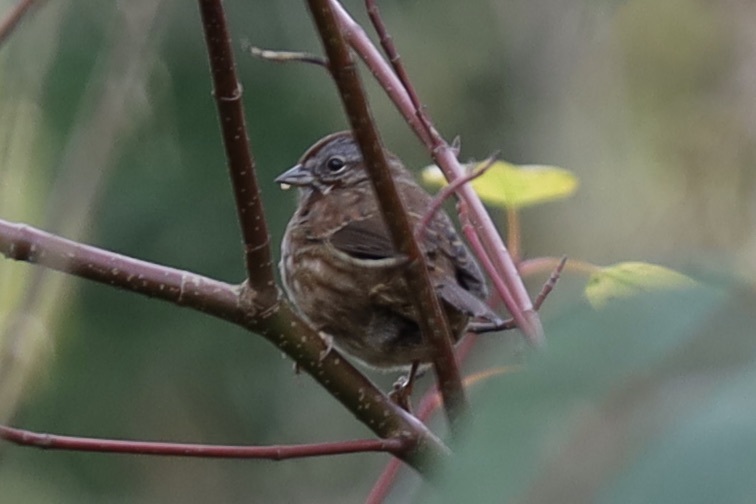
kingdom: Animalia
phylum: Chordata
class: Aves
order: Passeriformes
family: Passerellidae
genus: Melospiza
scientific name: Melospiza melodia
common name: Song sparrow
